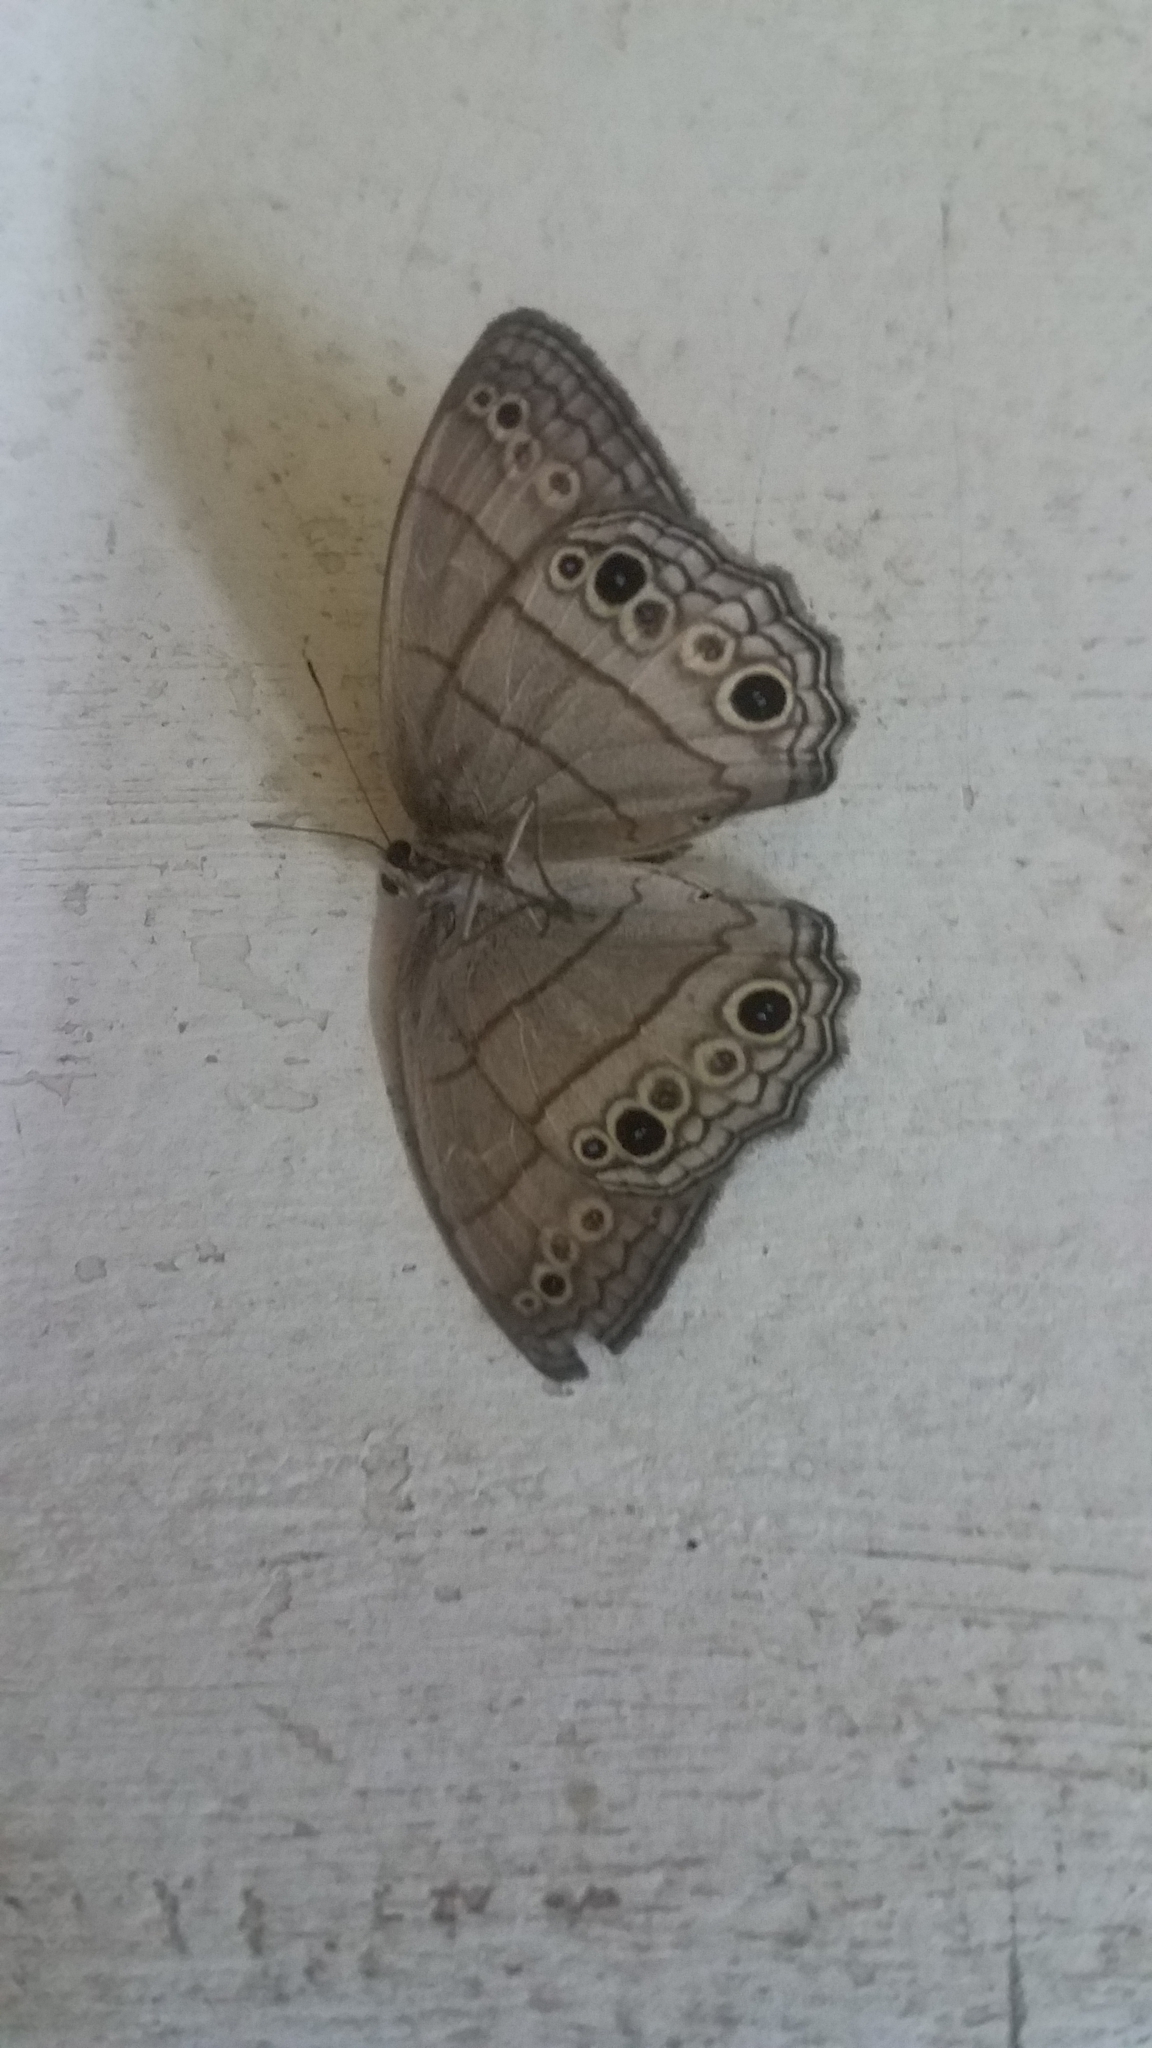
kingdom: Animalia
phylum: Arthropoda
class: Insecta
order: Lepidoptera
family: Nymphalidae
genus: Vareuptychia
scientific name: Vareuptychia similis
